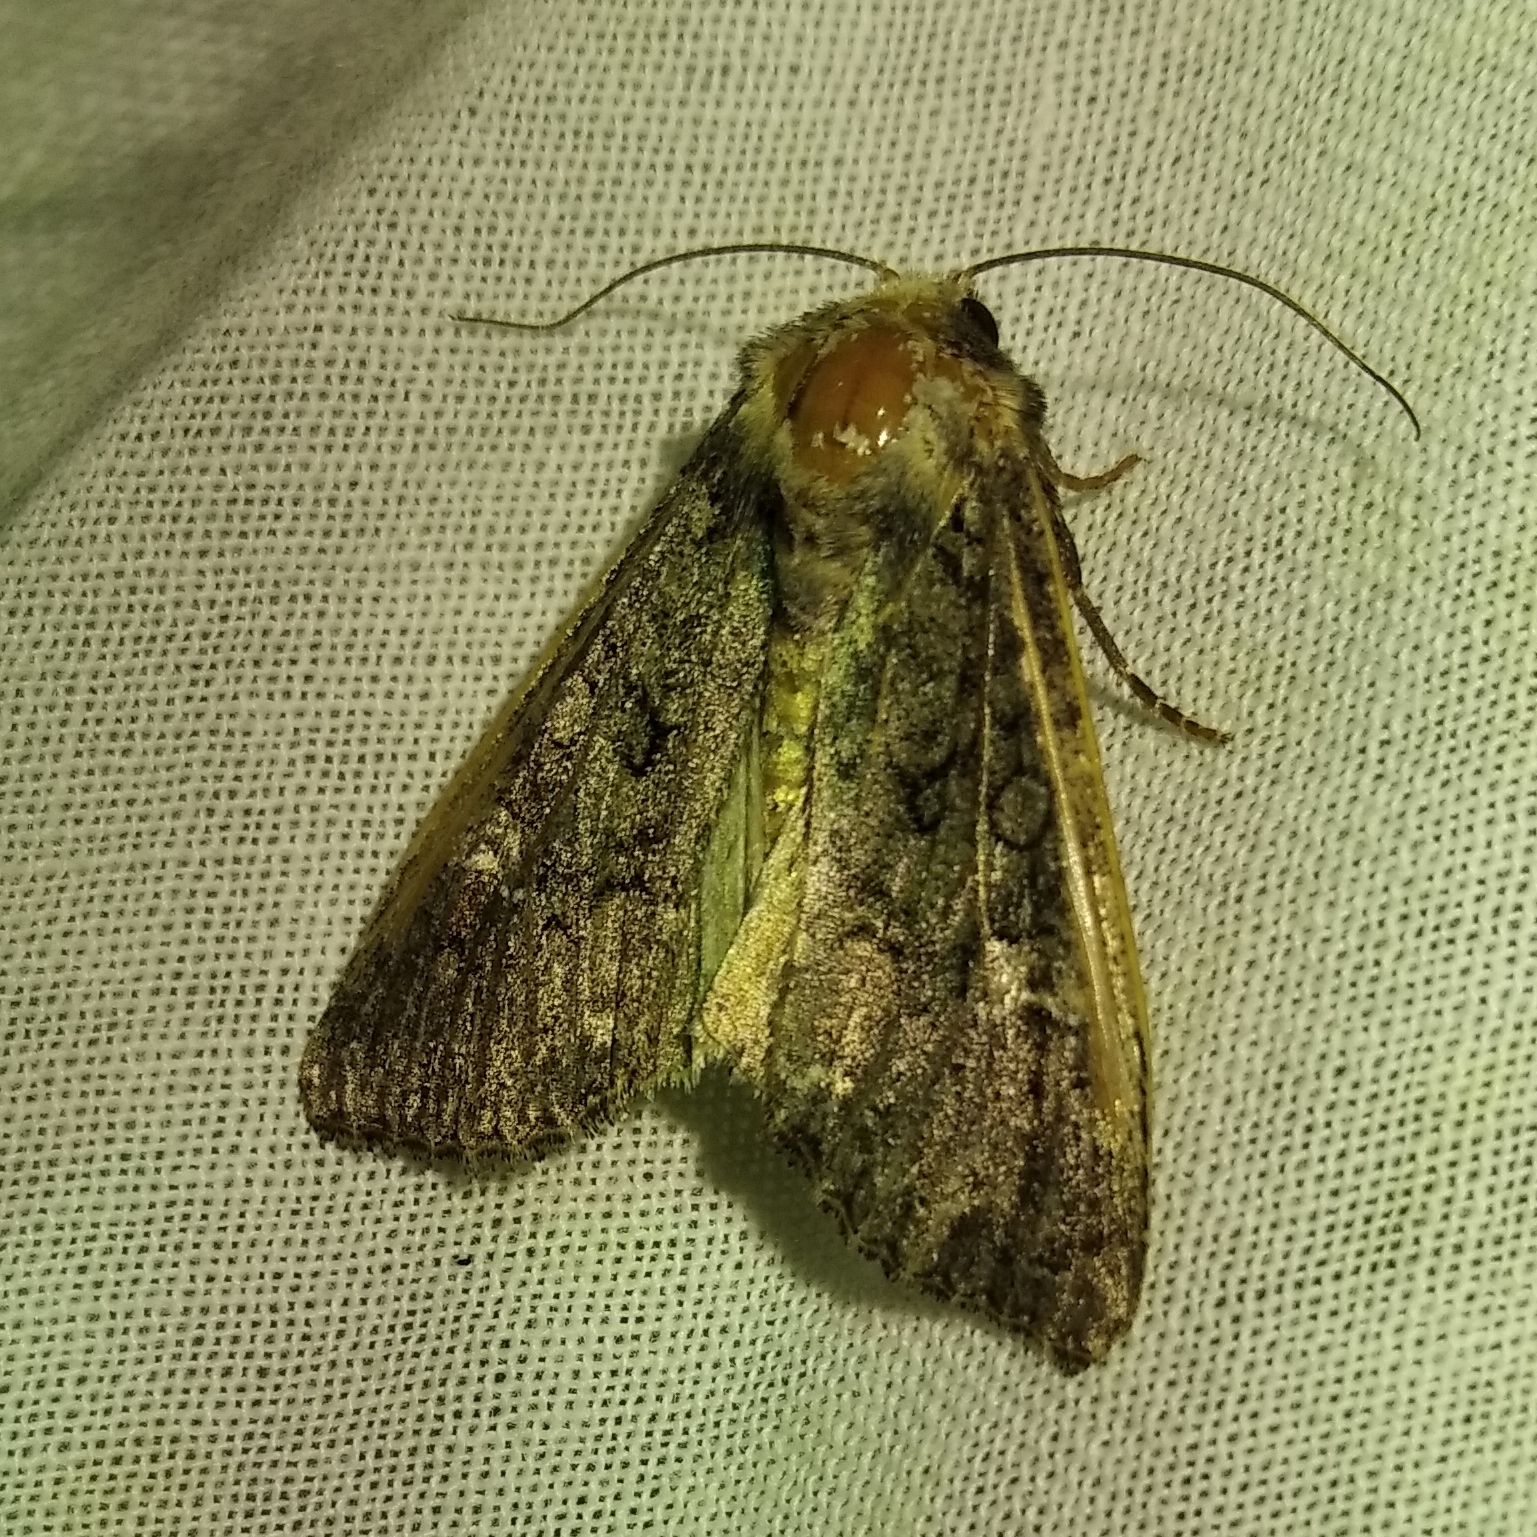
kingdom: Animalia
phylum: Arthropoda
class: Insecta
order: Lepidoptera
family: Noctuidae
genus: Mamestra
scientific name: Mamestra brassicae
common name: Cabbage moth
